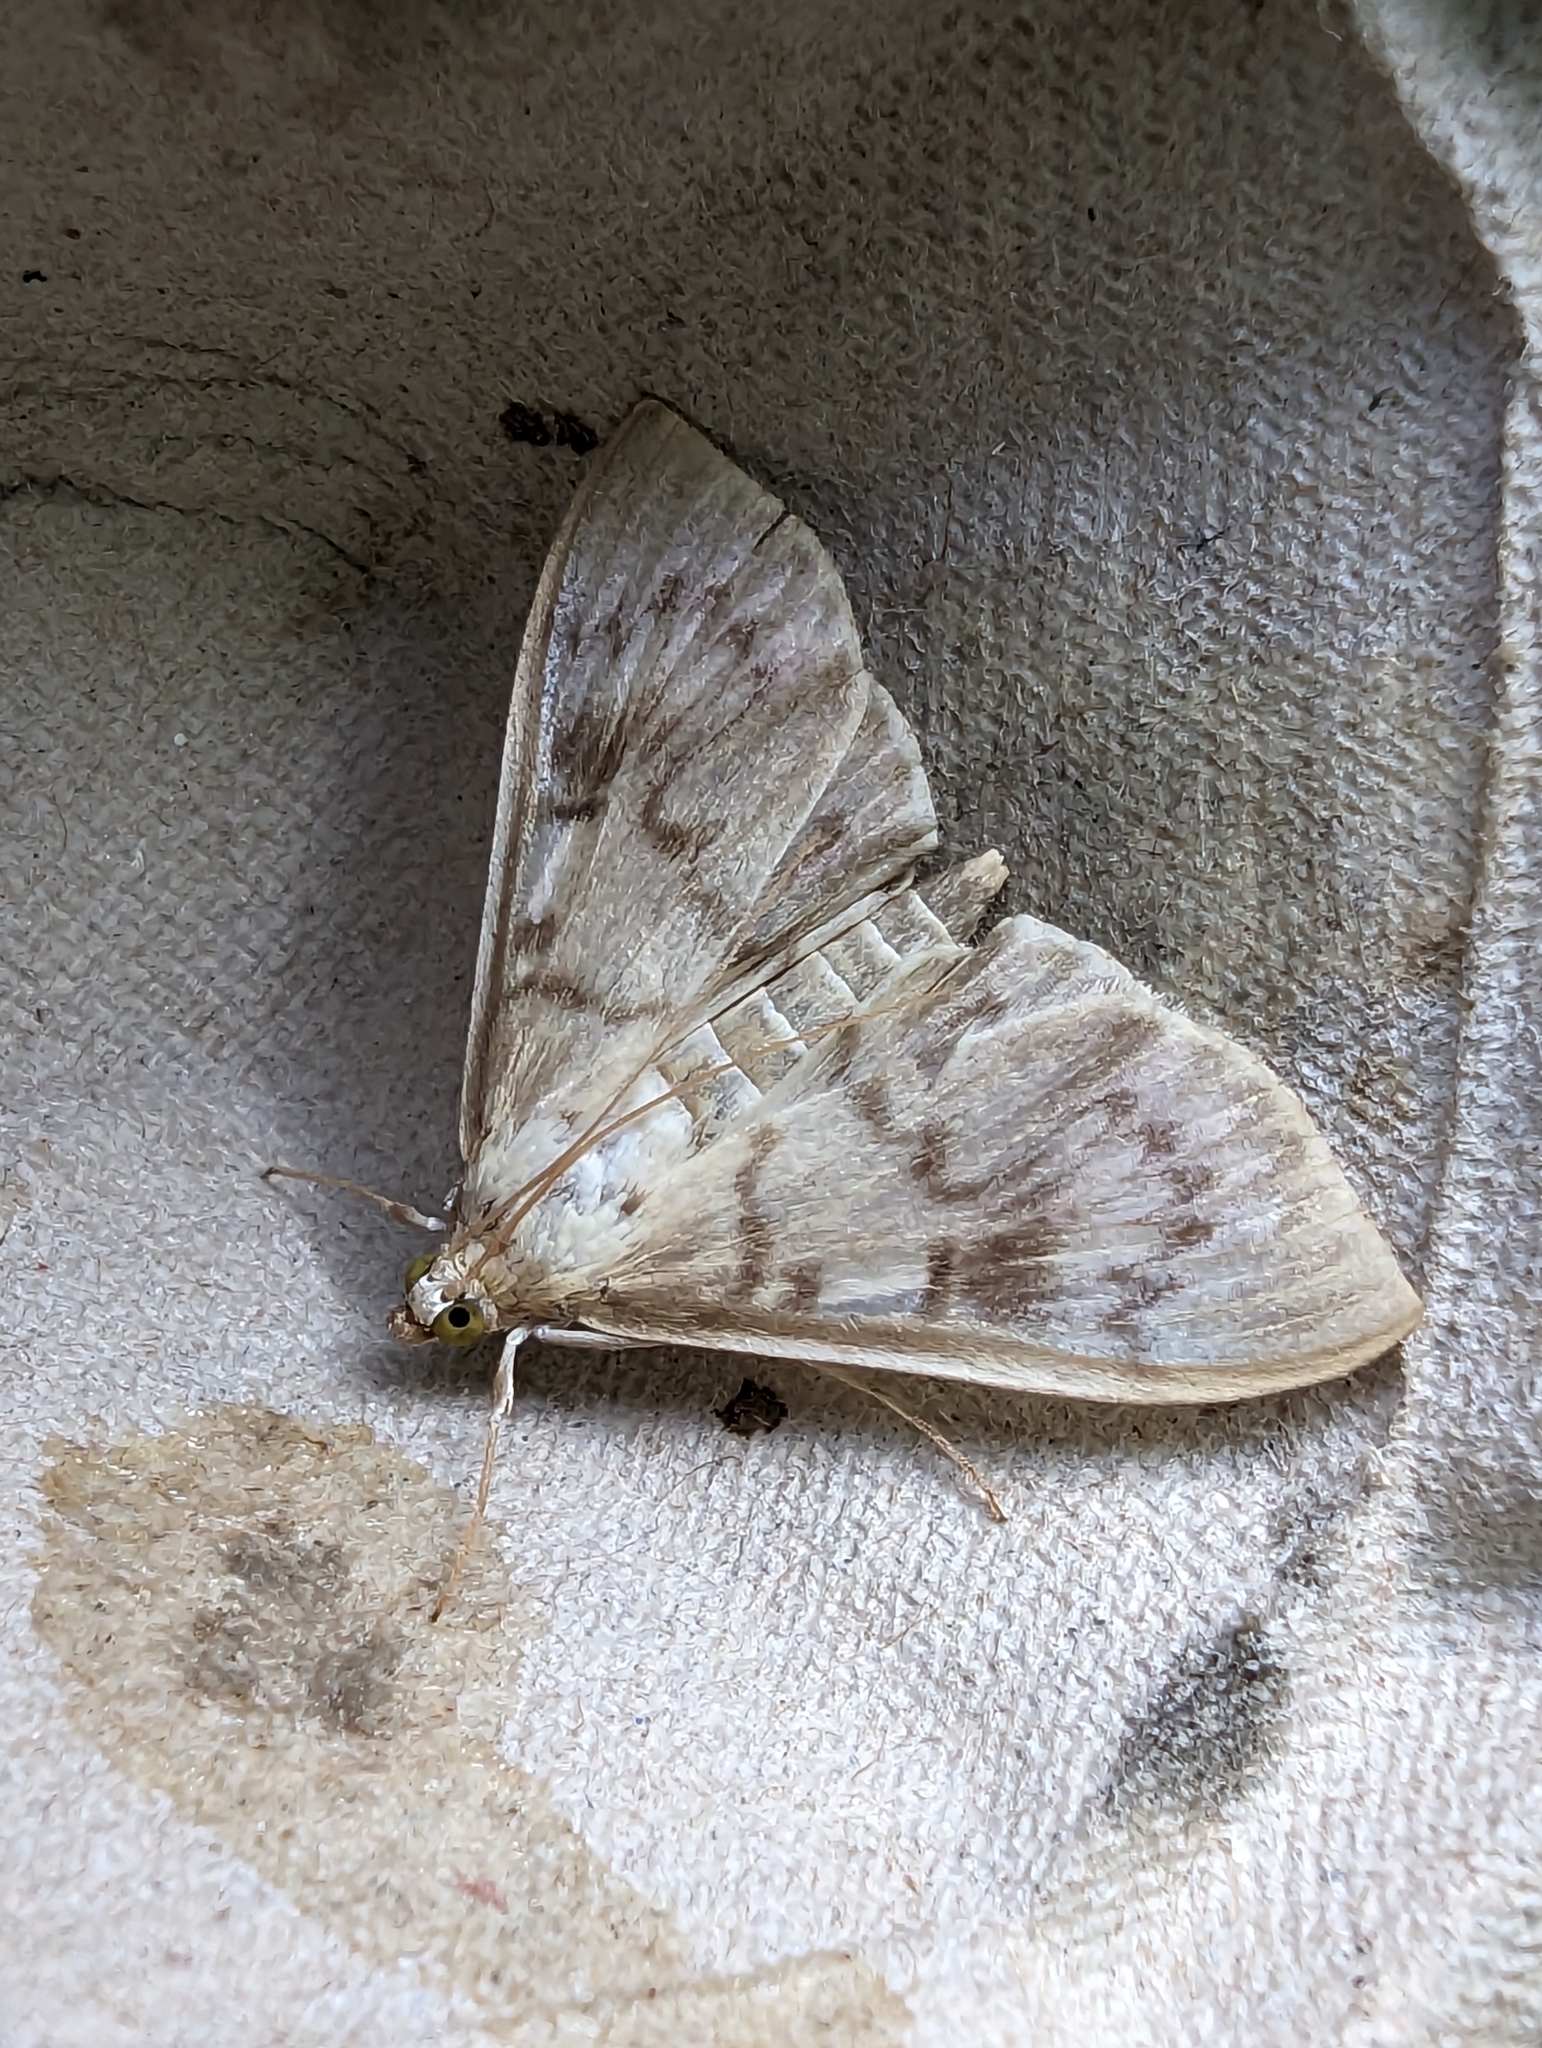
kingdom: Animalia
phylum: Arthropoda
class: Insecta
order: Lepidoptera
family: Crambidae
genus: Patania
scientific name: Patania ruralis
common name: Mother of pearl
